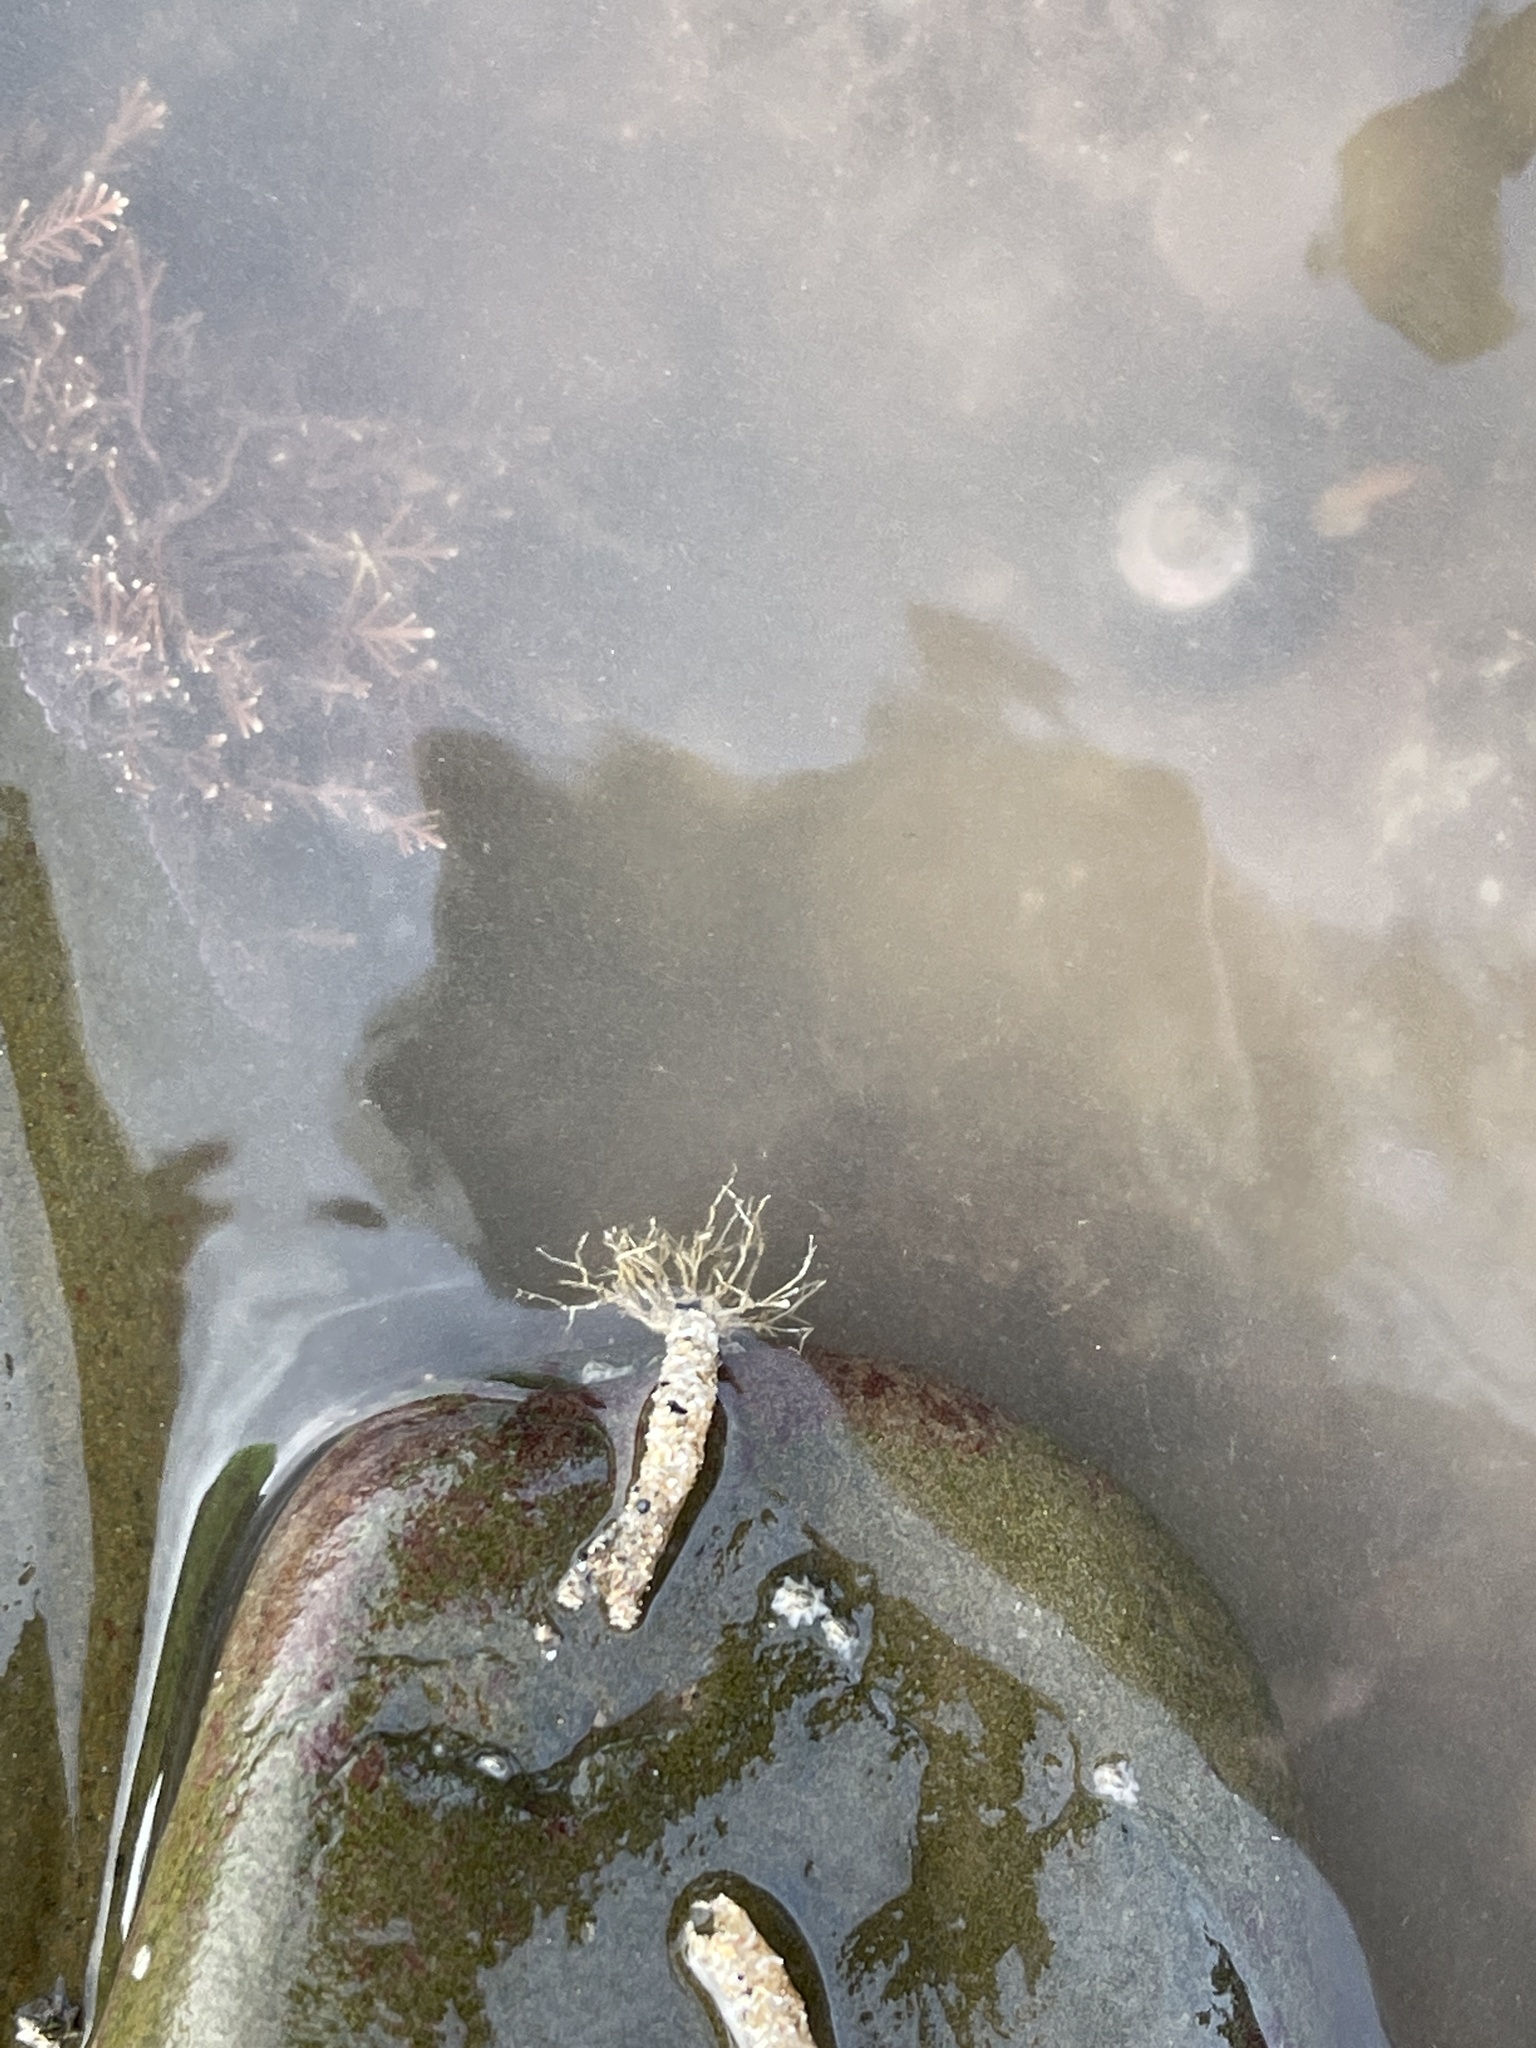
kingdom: Animalia
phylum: Annelida
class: Polychaeta
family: Terebellidae
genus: Lanice
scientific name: Lanice conchilega
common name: Sand mason
